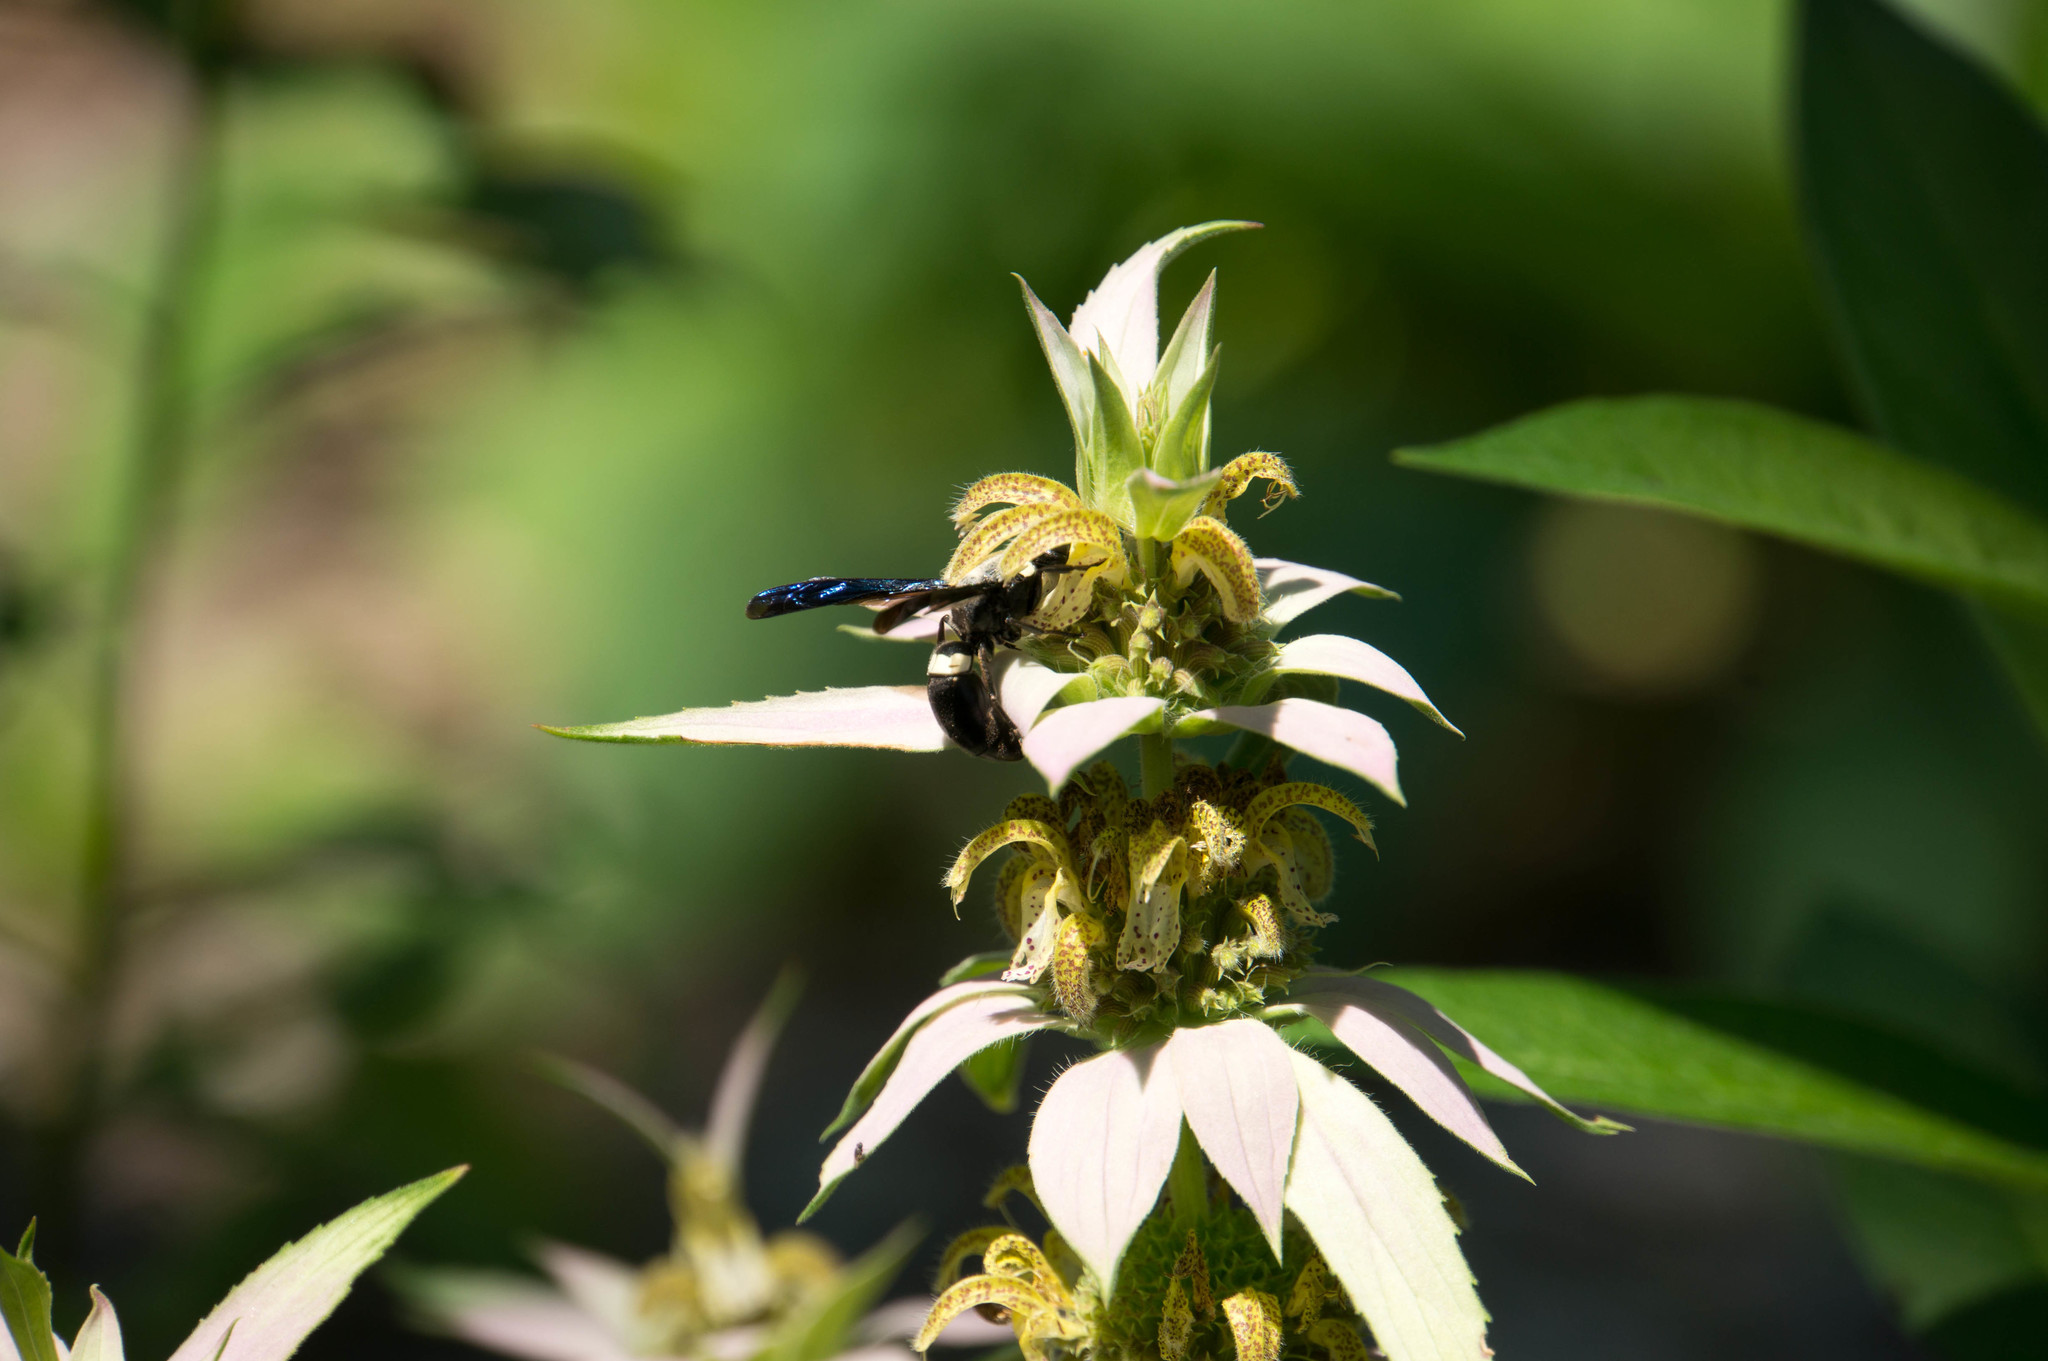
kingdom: Animalia
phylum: Arthropoda
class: Insecta
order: Hymenoptera
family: Eumenidae
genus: Monobia
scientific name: Monobia quadridens
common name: Four-toothed mason wasp
